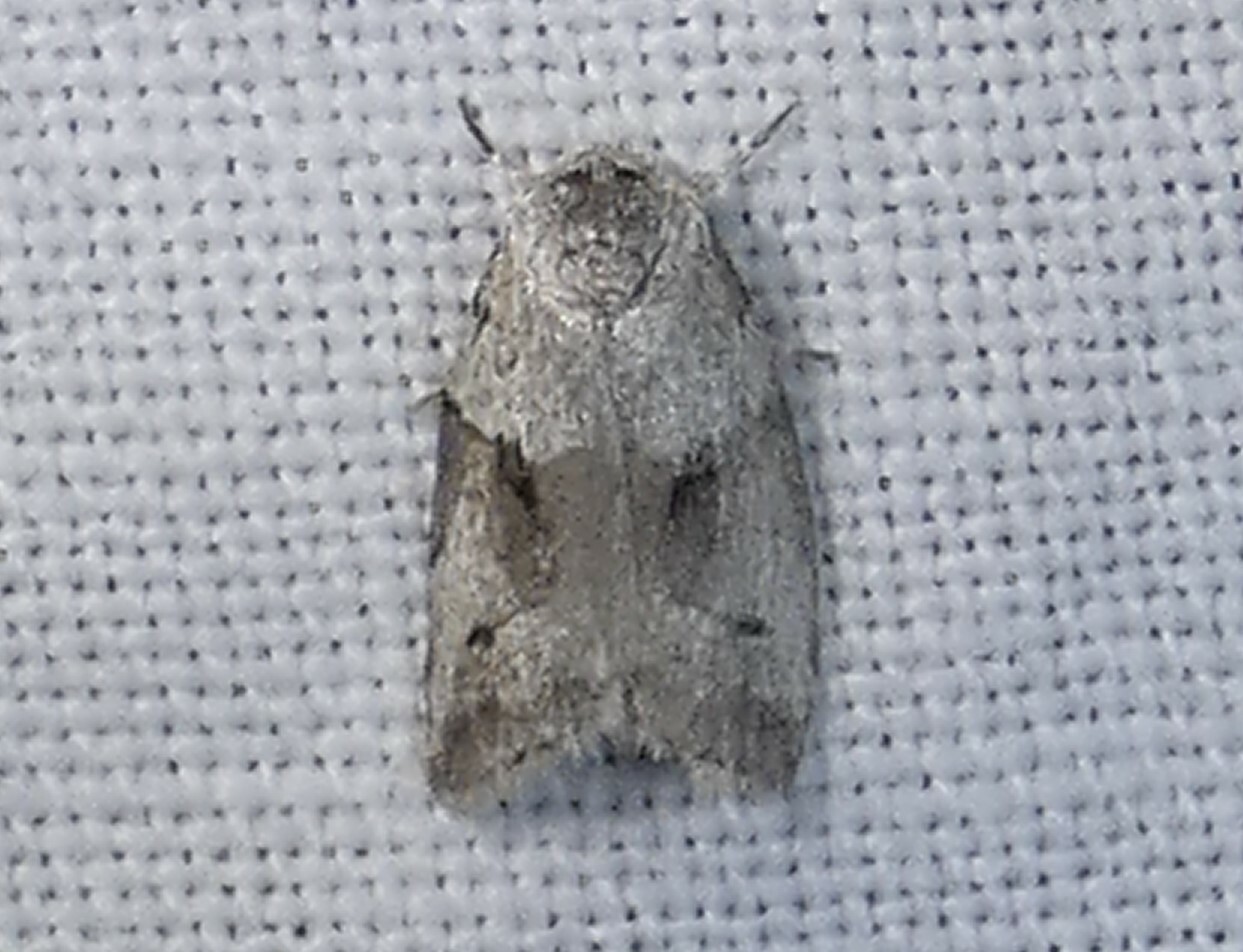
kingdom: Animalia
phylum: Arthropoda
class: Insecta
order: Lepidoptera
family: Nolidae
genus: Afrida
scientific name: Afrida ydatodes
